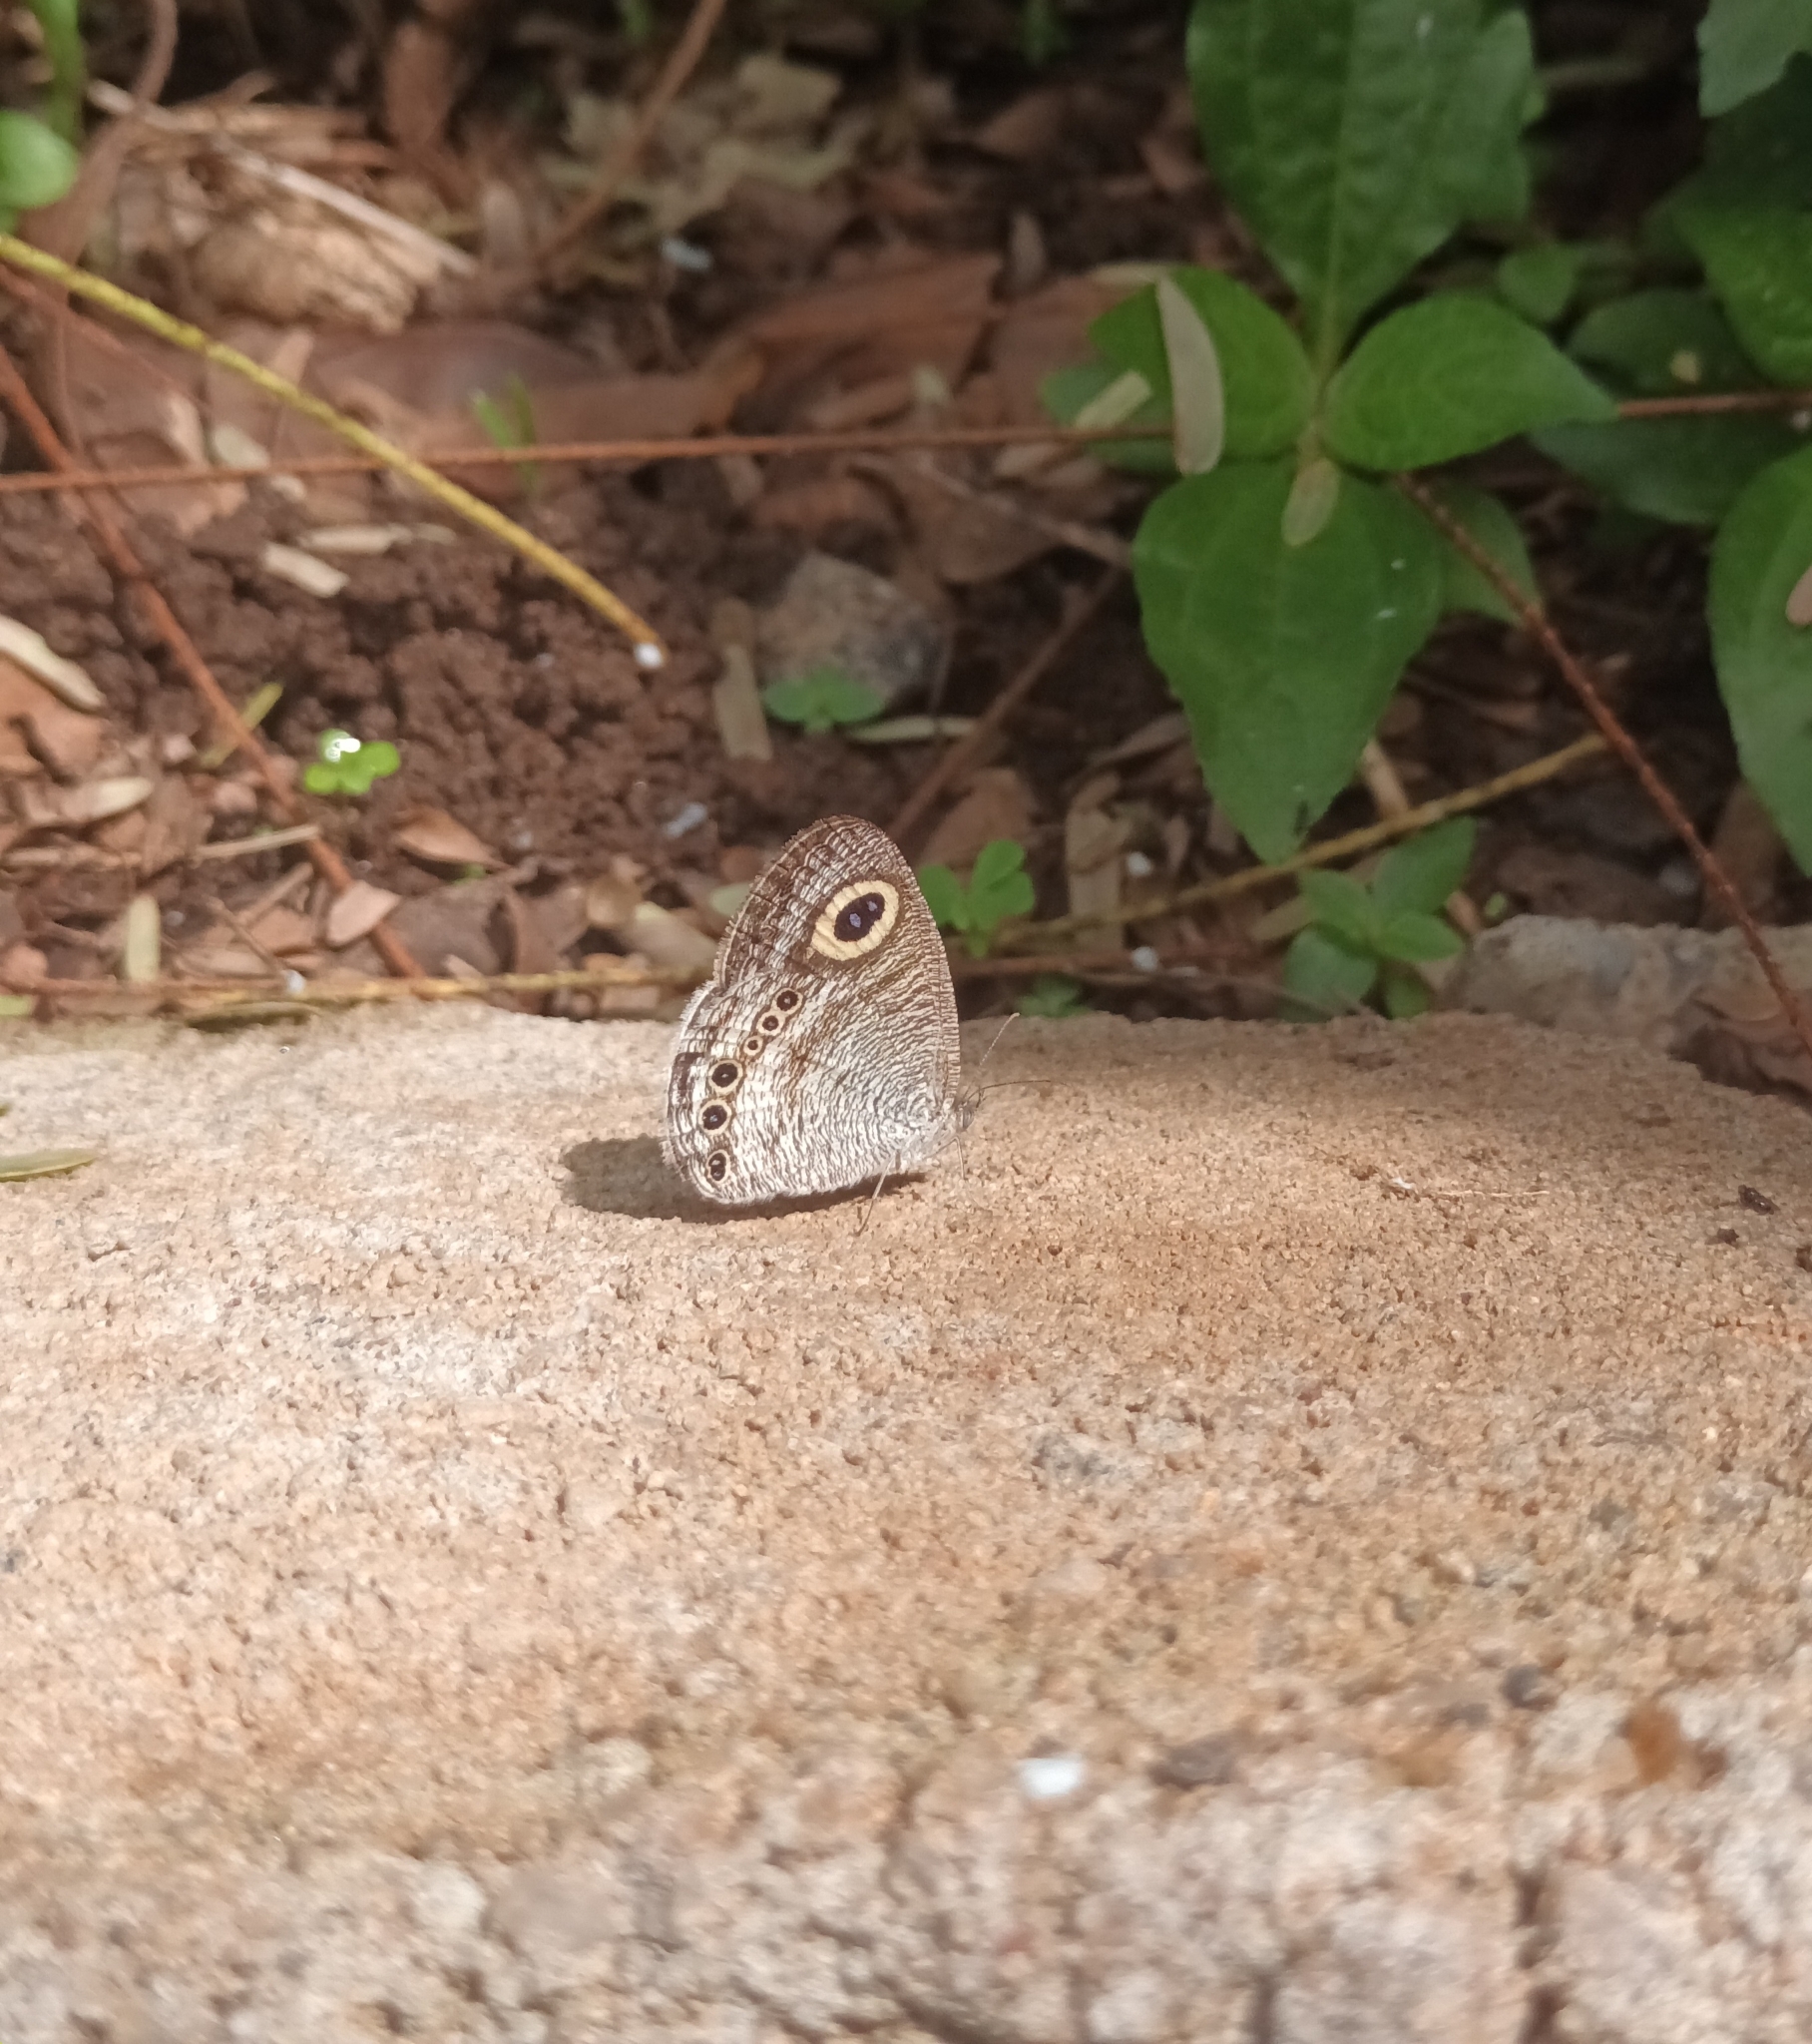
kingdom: Animalia
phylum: Arthropoda
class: Insecta
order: Lepidoptera
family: Nymphalidae
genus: Ypthima
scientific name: Ypthima huebneri
